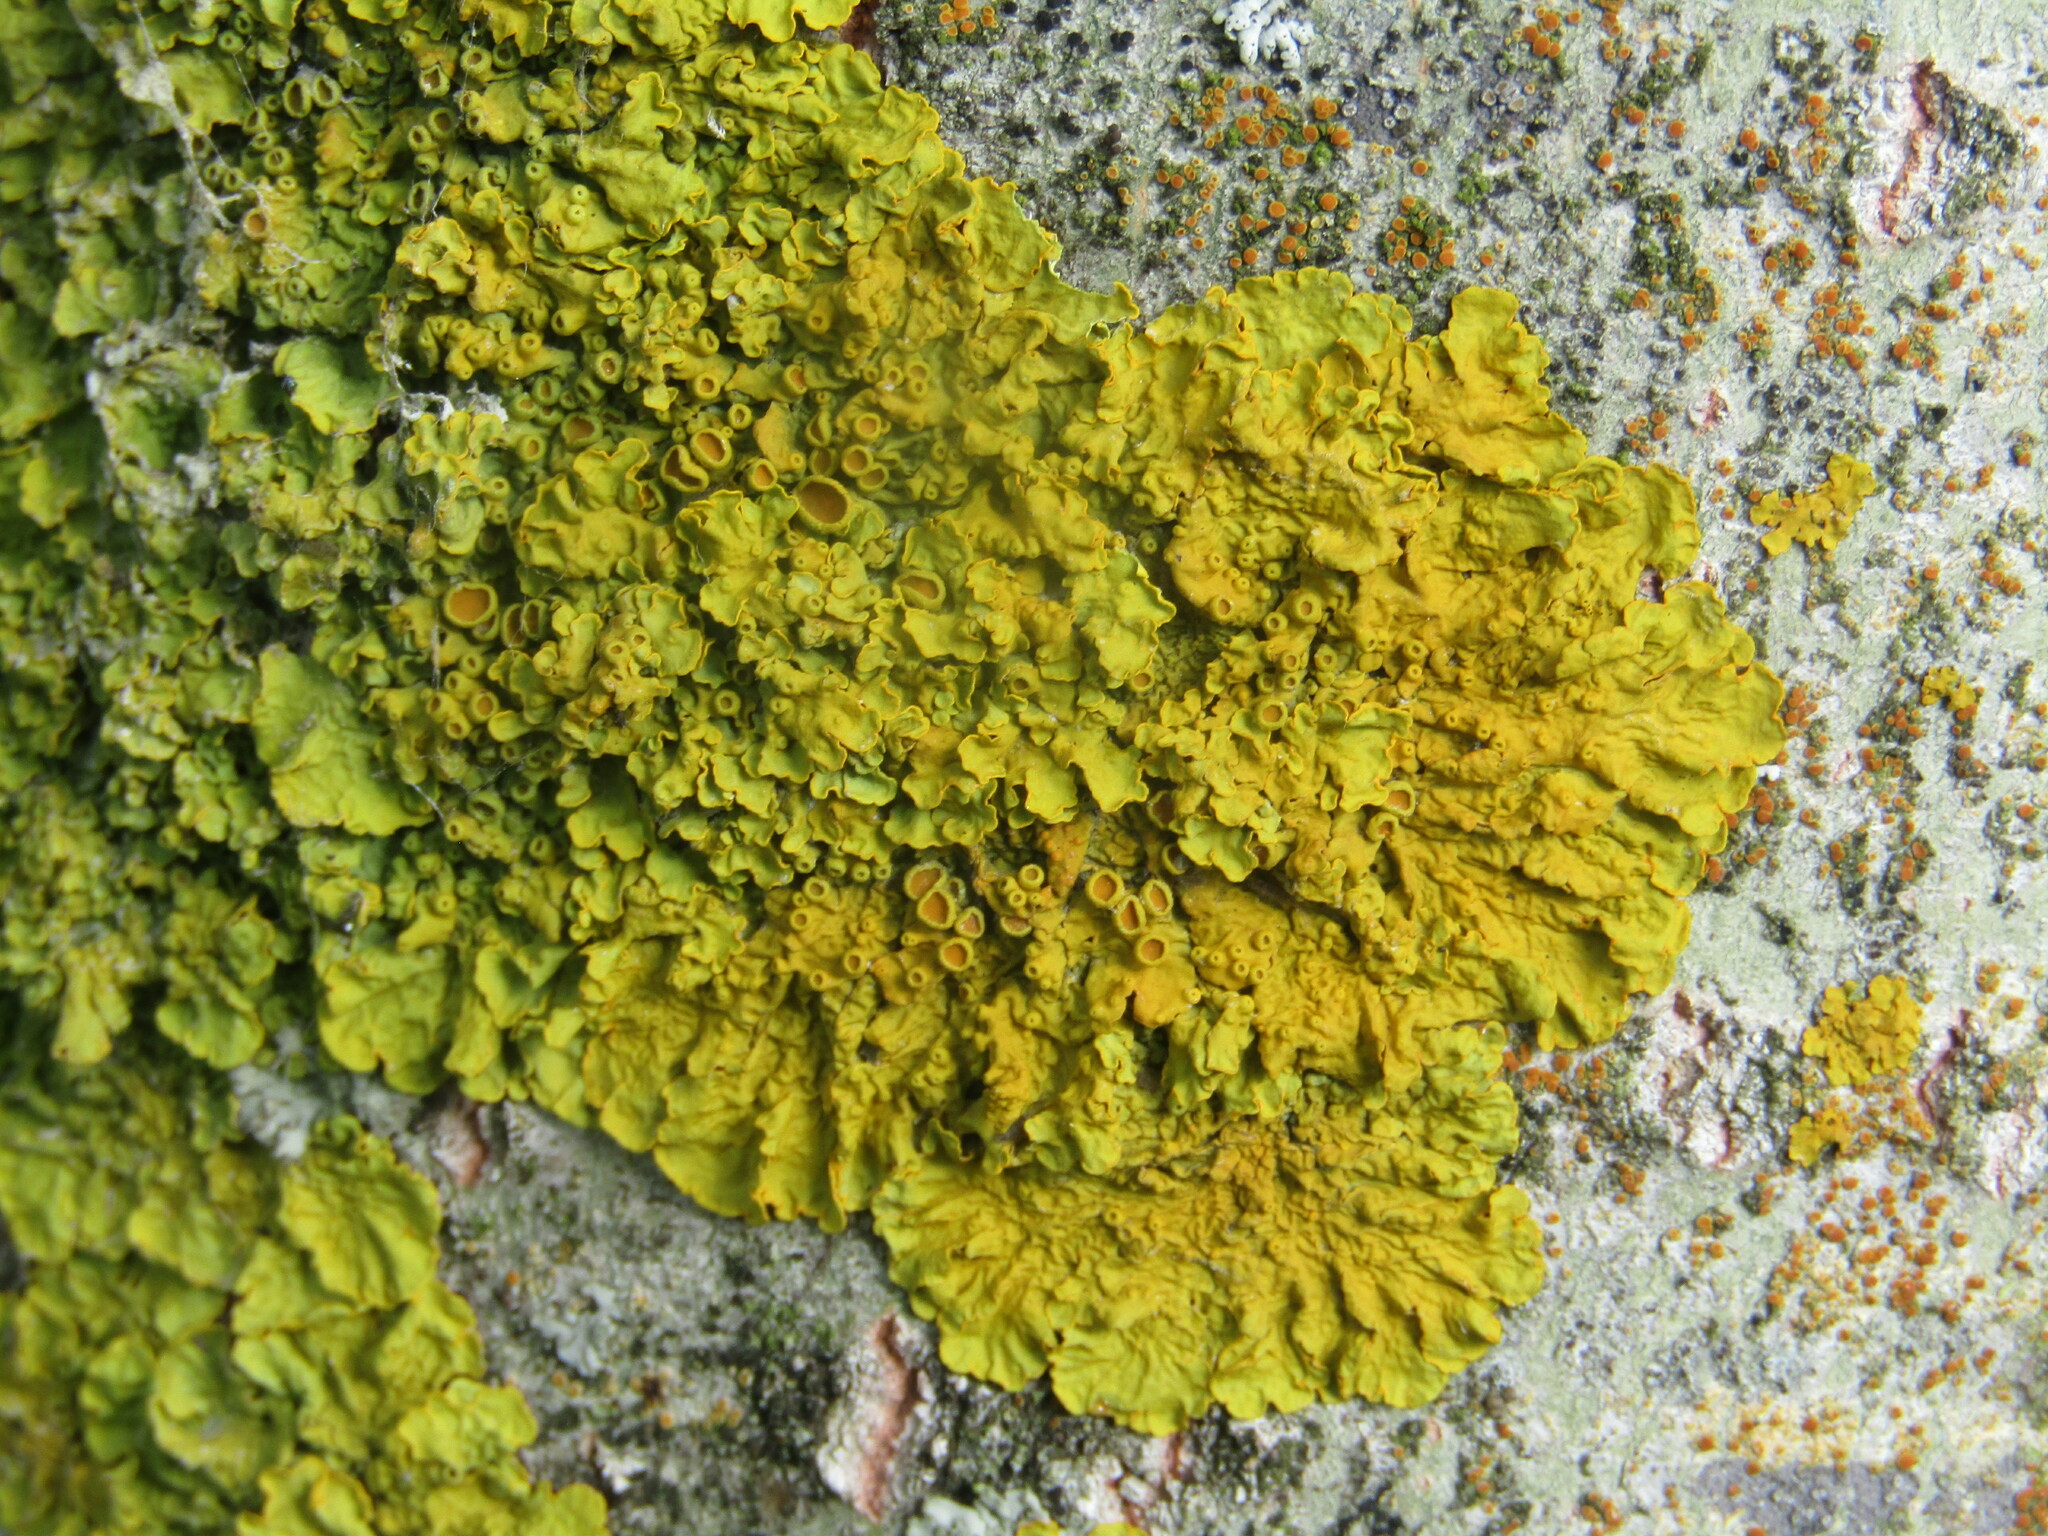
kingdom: Fungi
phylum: Ascomycota
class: Lecanoromycetes
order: Teloschistales
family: Teloschistaceae
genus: Xanthoria
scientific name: Xanthoria parietina
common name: Common orange lichen
